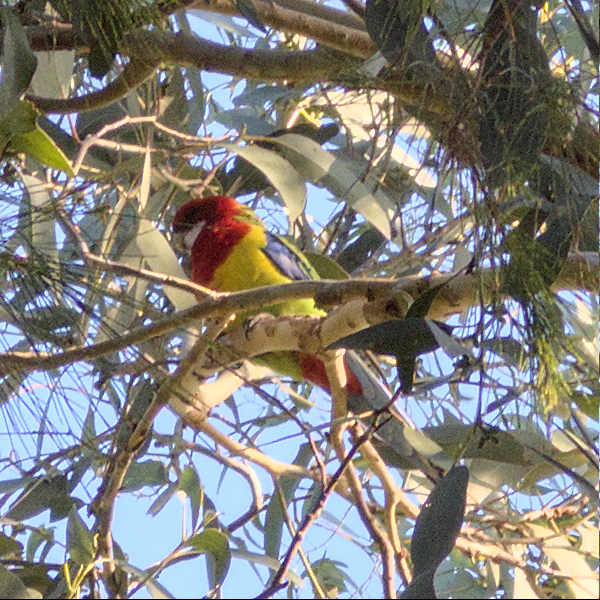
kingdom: Animalia
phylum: Chordata
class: Aves
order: Psittaciformes
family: Psittacidae
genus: Platycercus
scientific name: Platycercus eximius
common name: Eastern rosella
